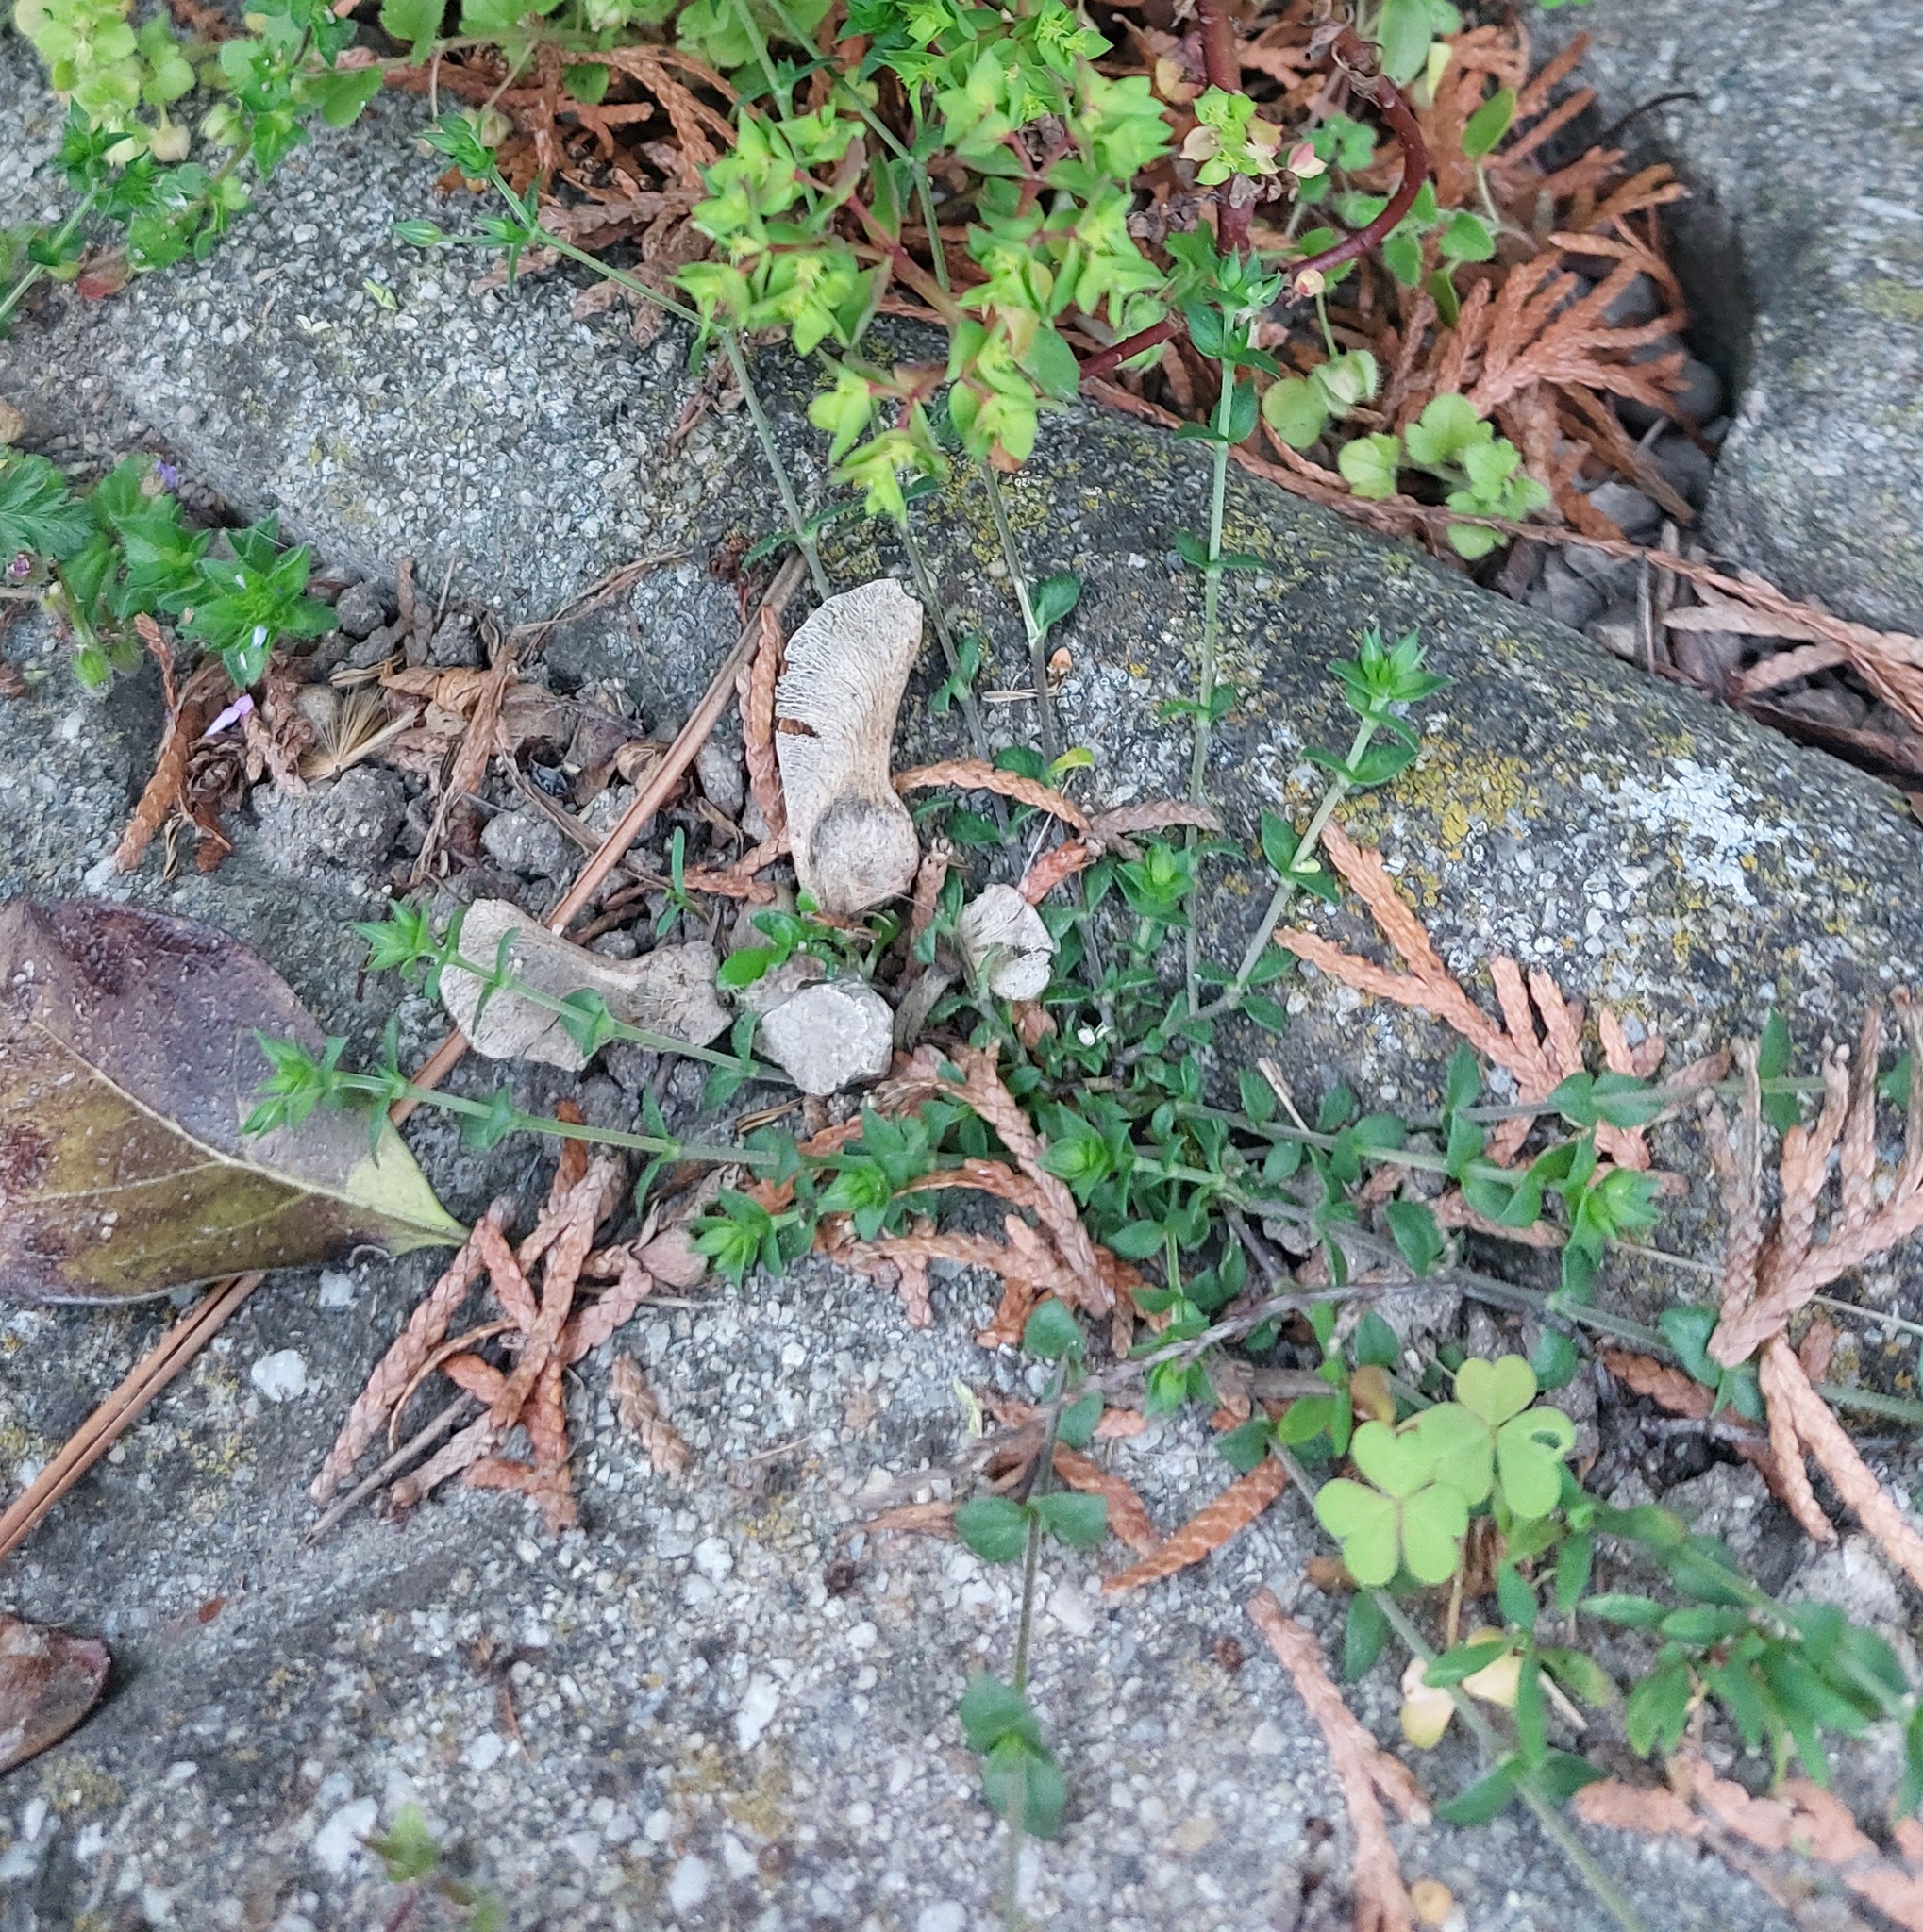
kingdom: Plantae
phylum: Tracheophyta
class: Magnoliopsida
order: Caryophyllales
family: Caryophyllaceae
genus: Arenaria
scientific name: Arenaria serpyllifolia
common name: Thyme-leaved sandwort
